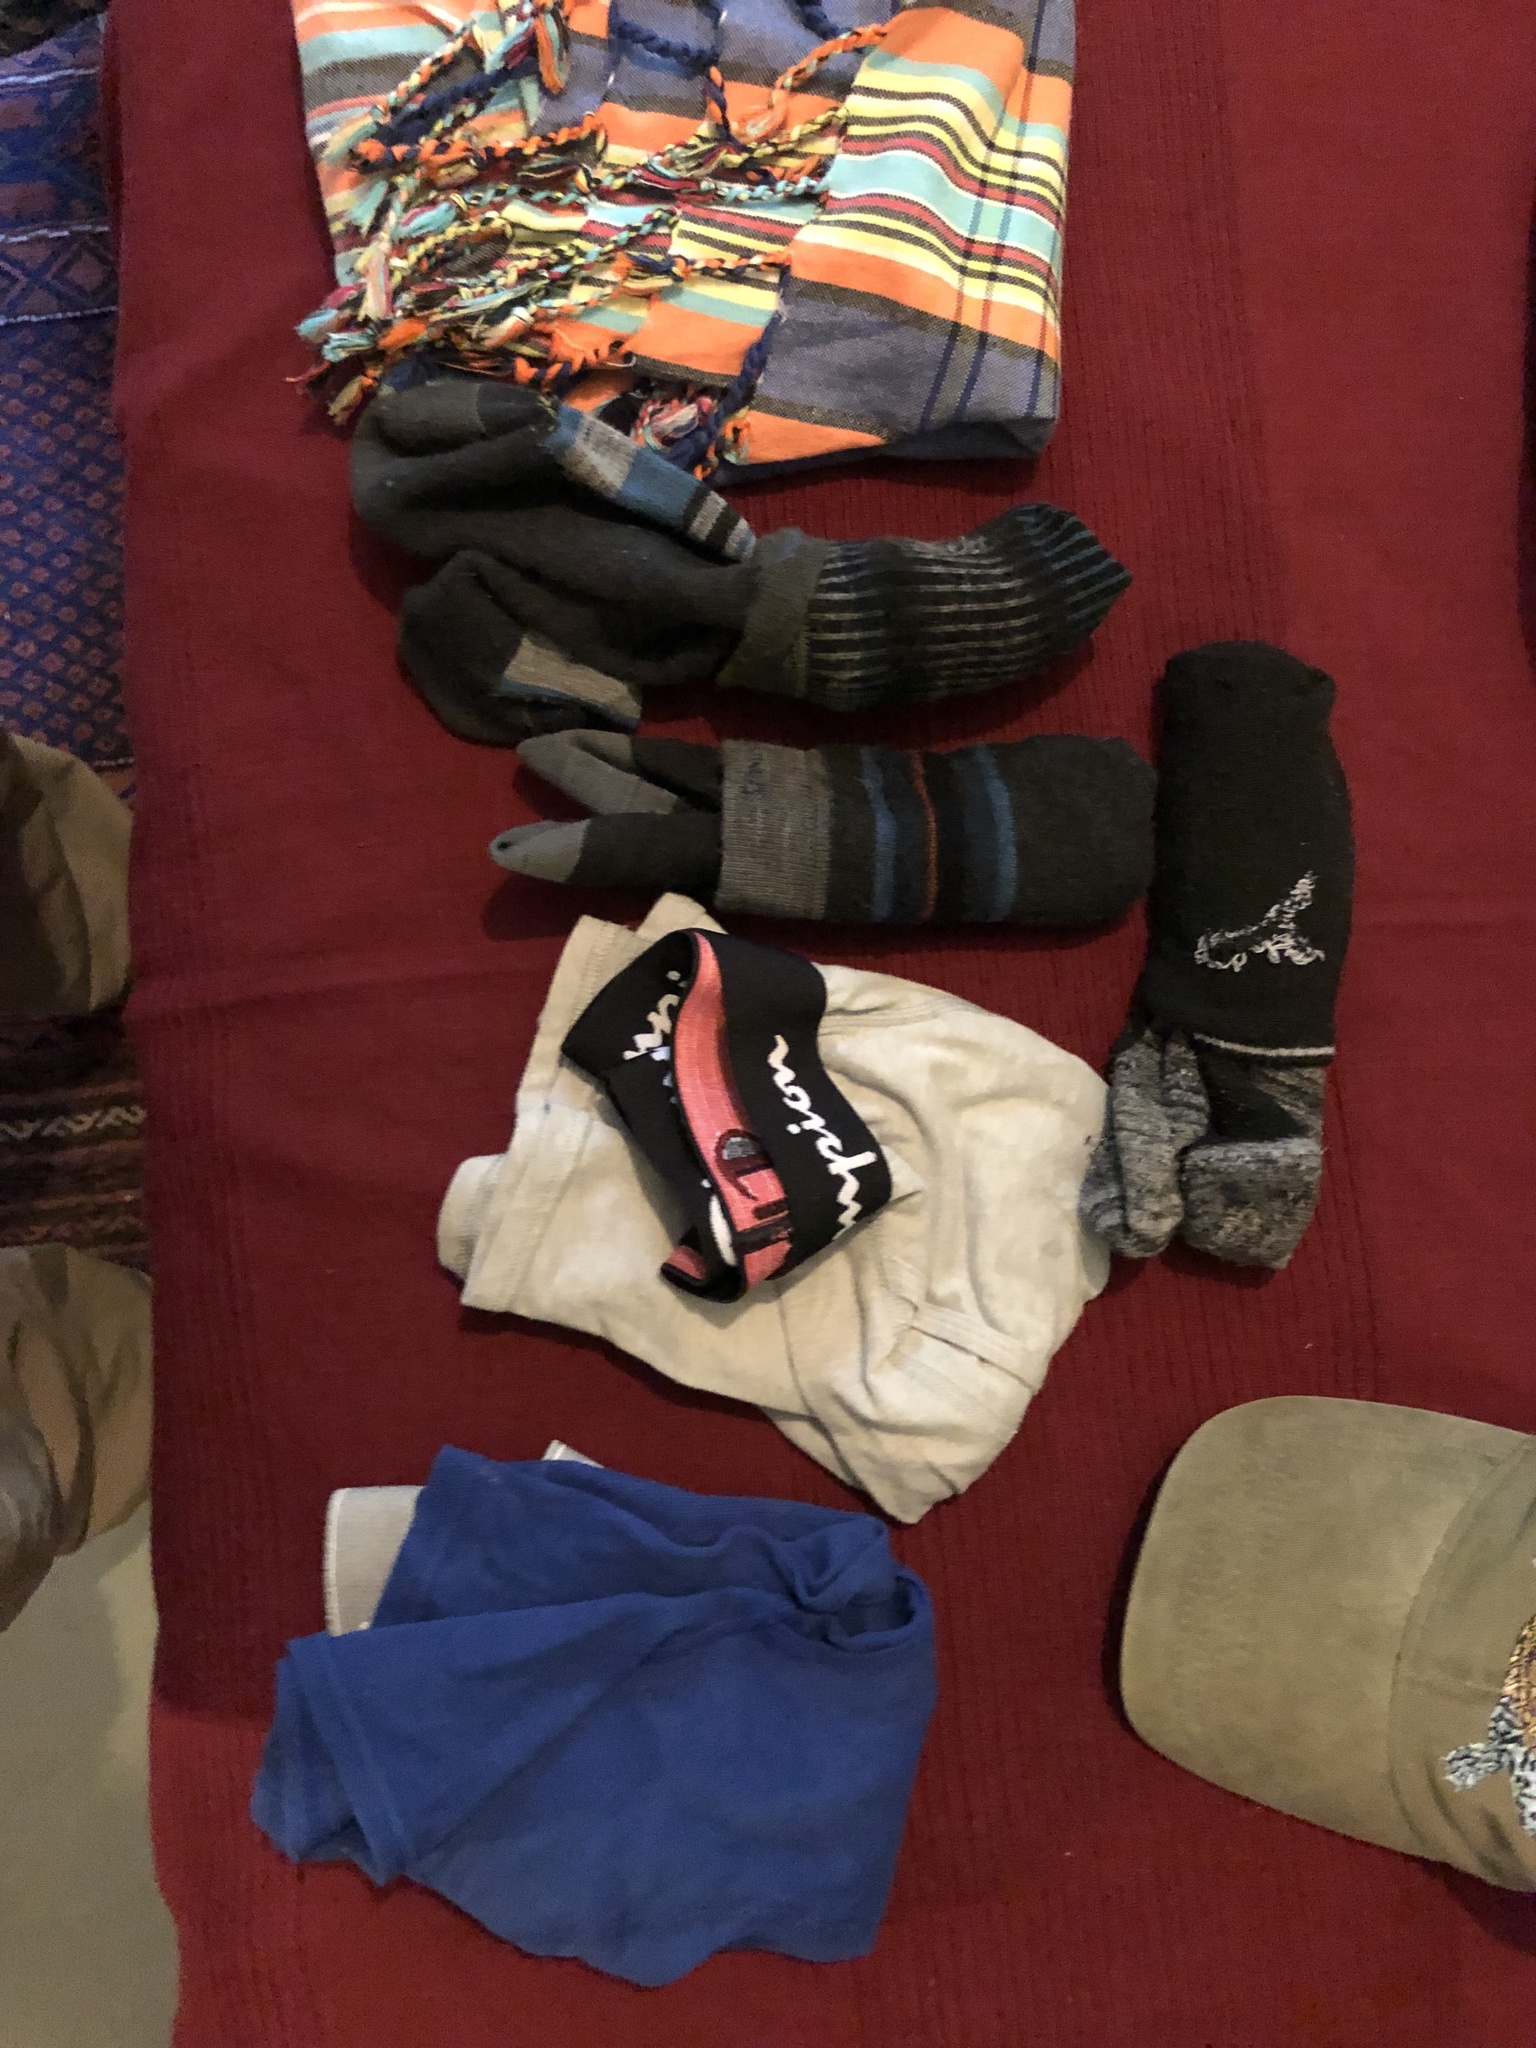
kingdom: Animalia
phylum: Chordata
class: Mammalia
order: Rodentia
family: Sciuridae
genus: Tamias
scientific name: Tamias striatus
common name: Eastern chipmunk
